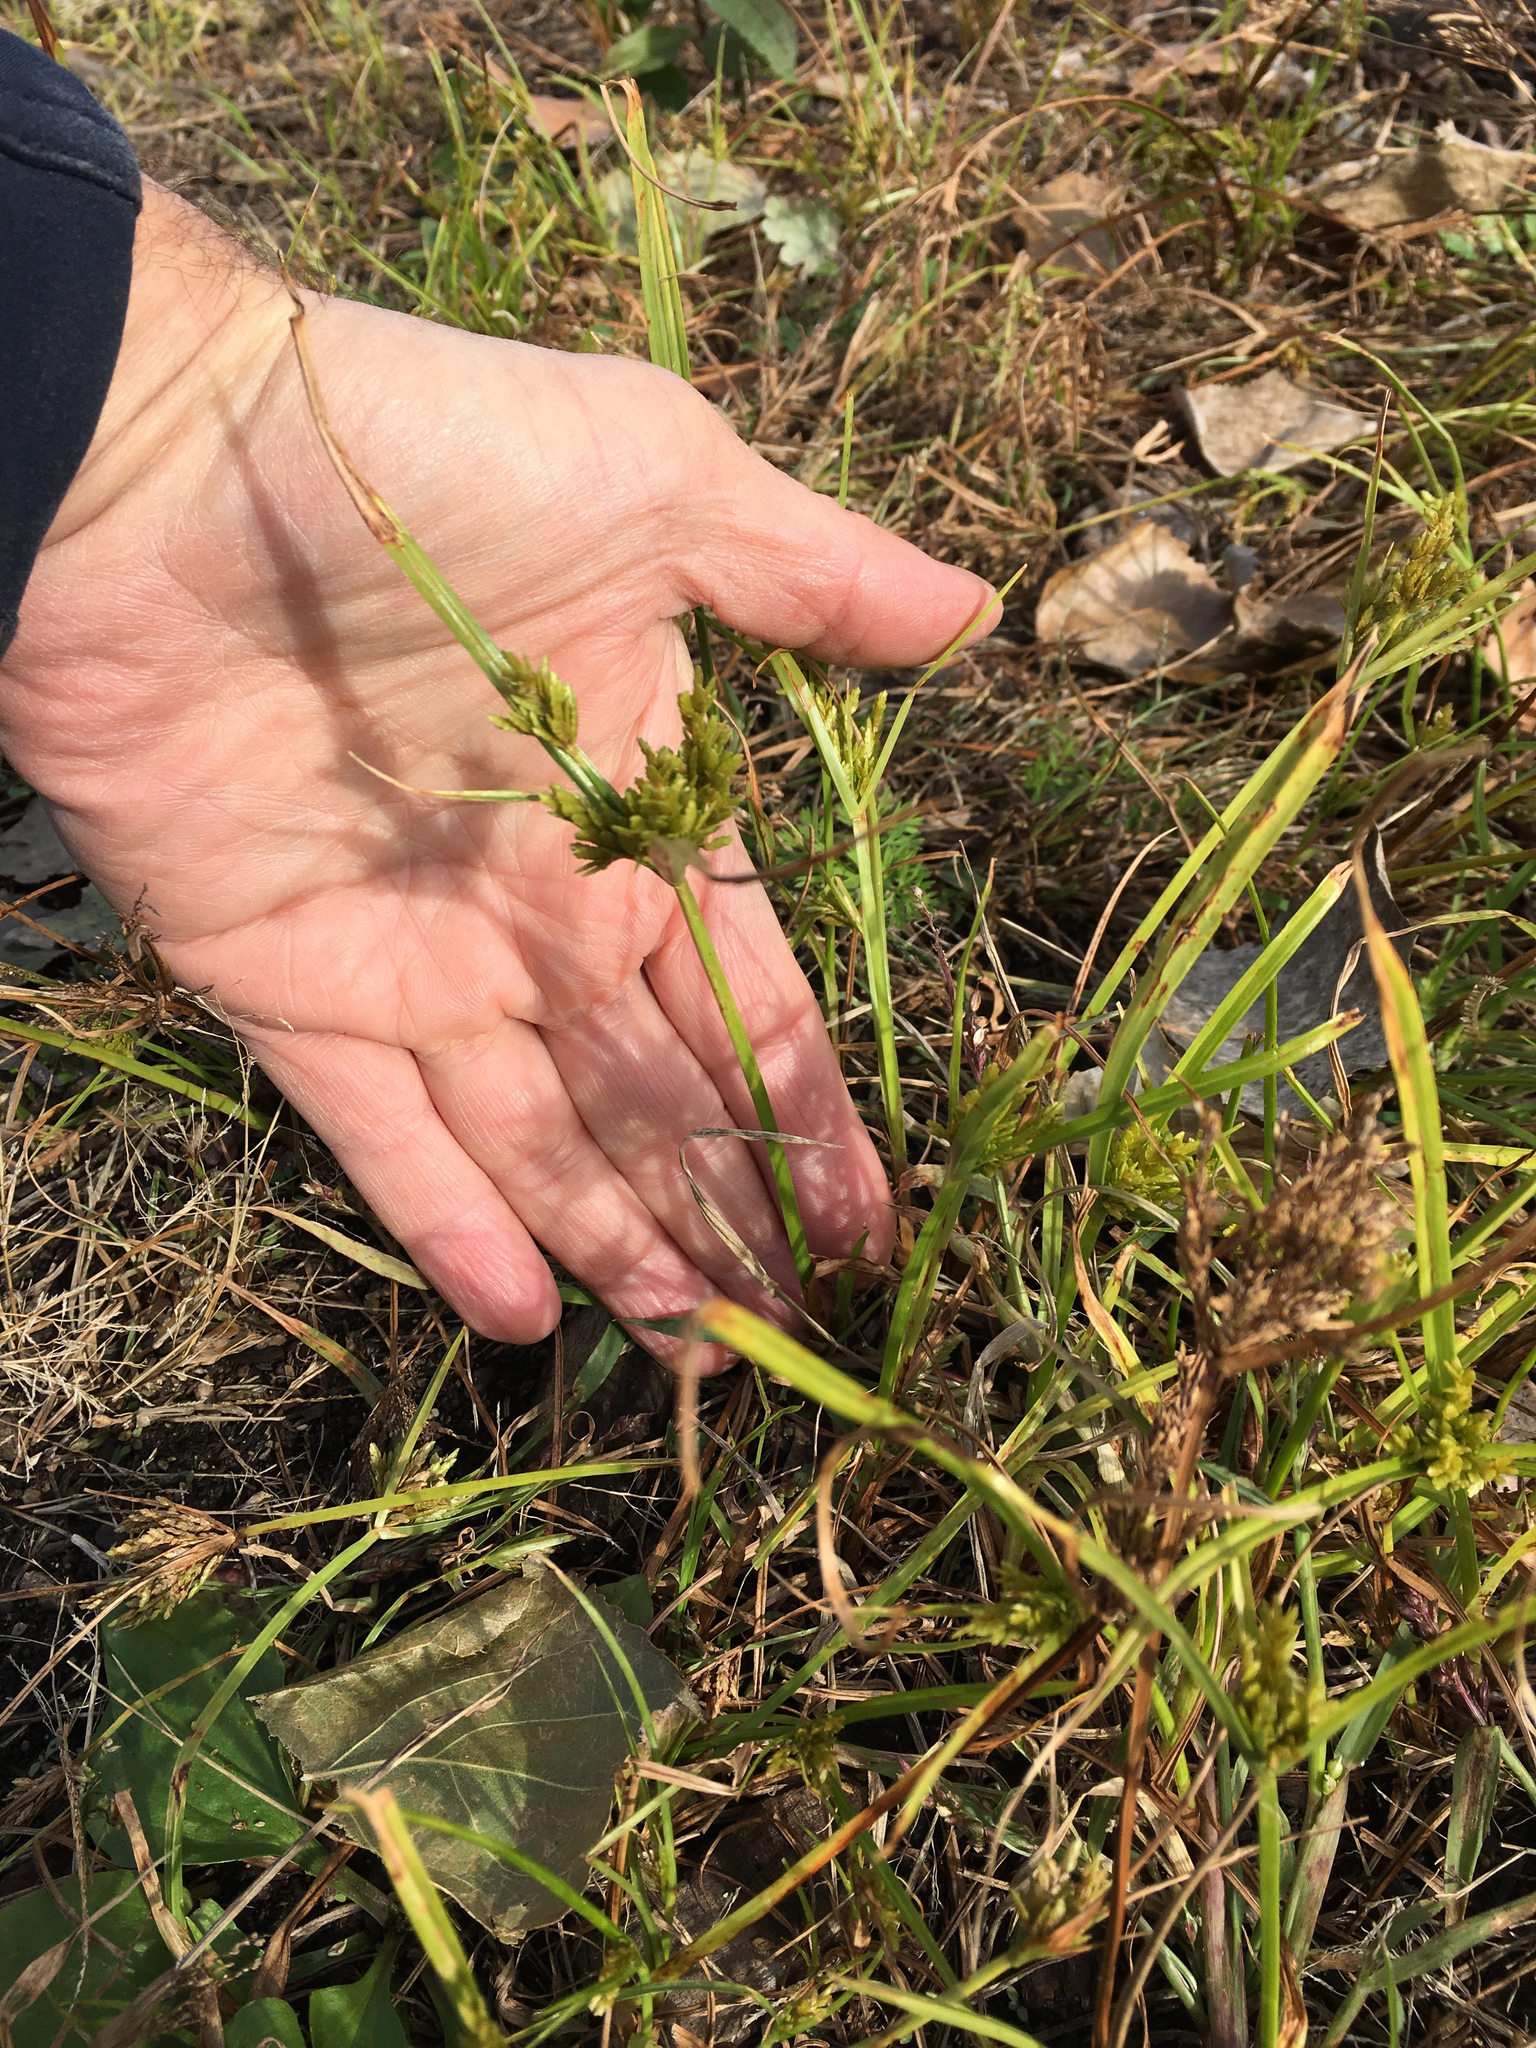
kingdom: Plantae
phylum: Tracheophyta
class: Liliopsida
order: Poales
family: Cyperaceae
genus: Cyperus
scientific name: Cyperus iria
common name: Ricefield flatsedge
